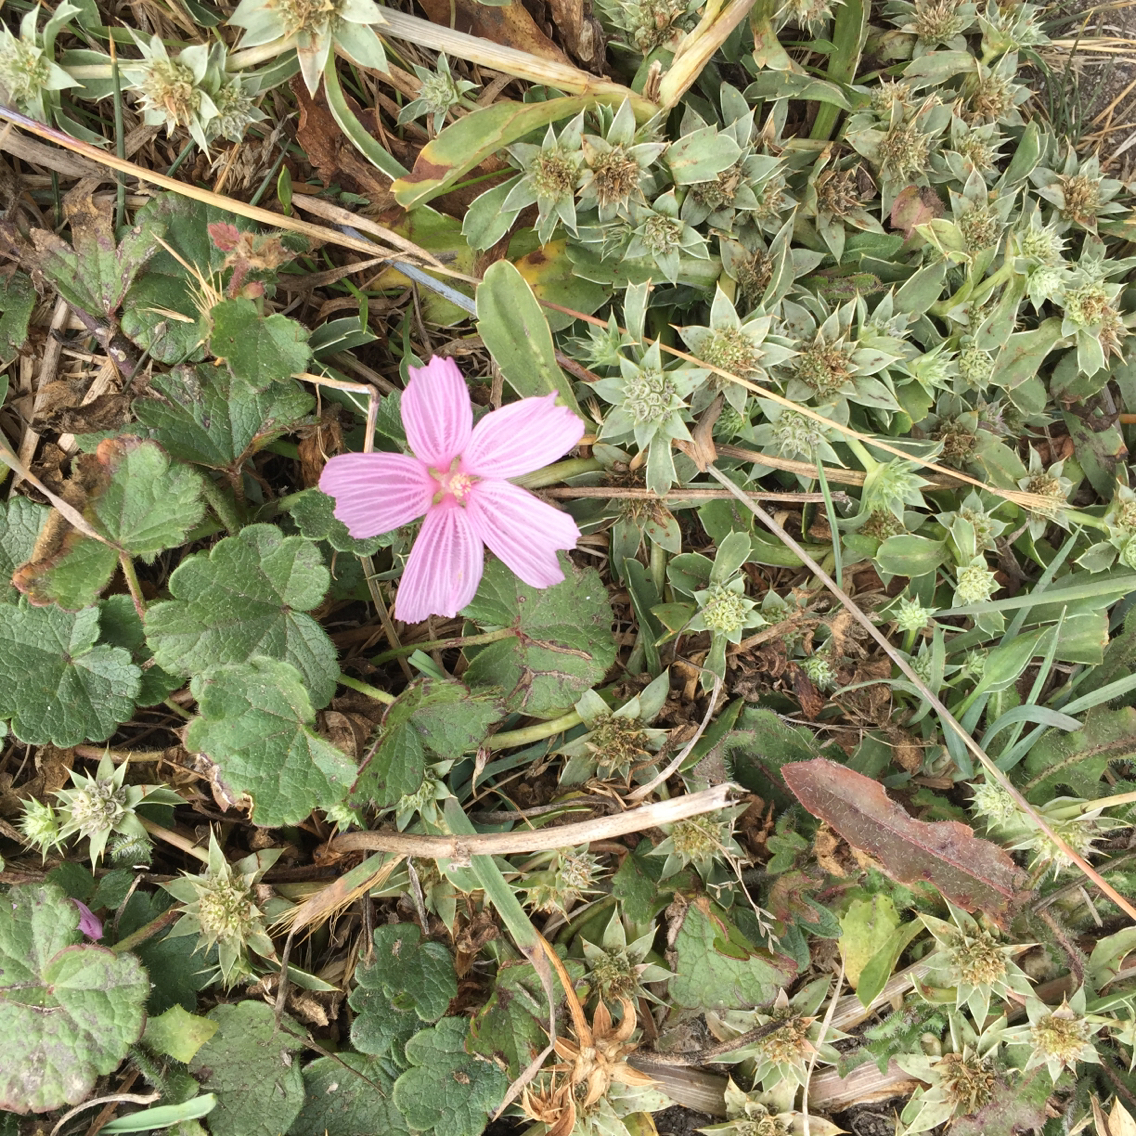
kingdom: Plantae
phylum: Tracheophyta
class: Magnoliopsida
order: Malvales
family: Malvaceae
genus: Sidalcea
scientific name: Sidalcea malviflora
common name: Greek mallow
